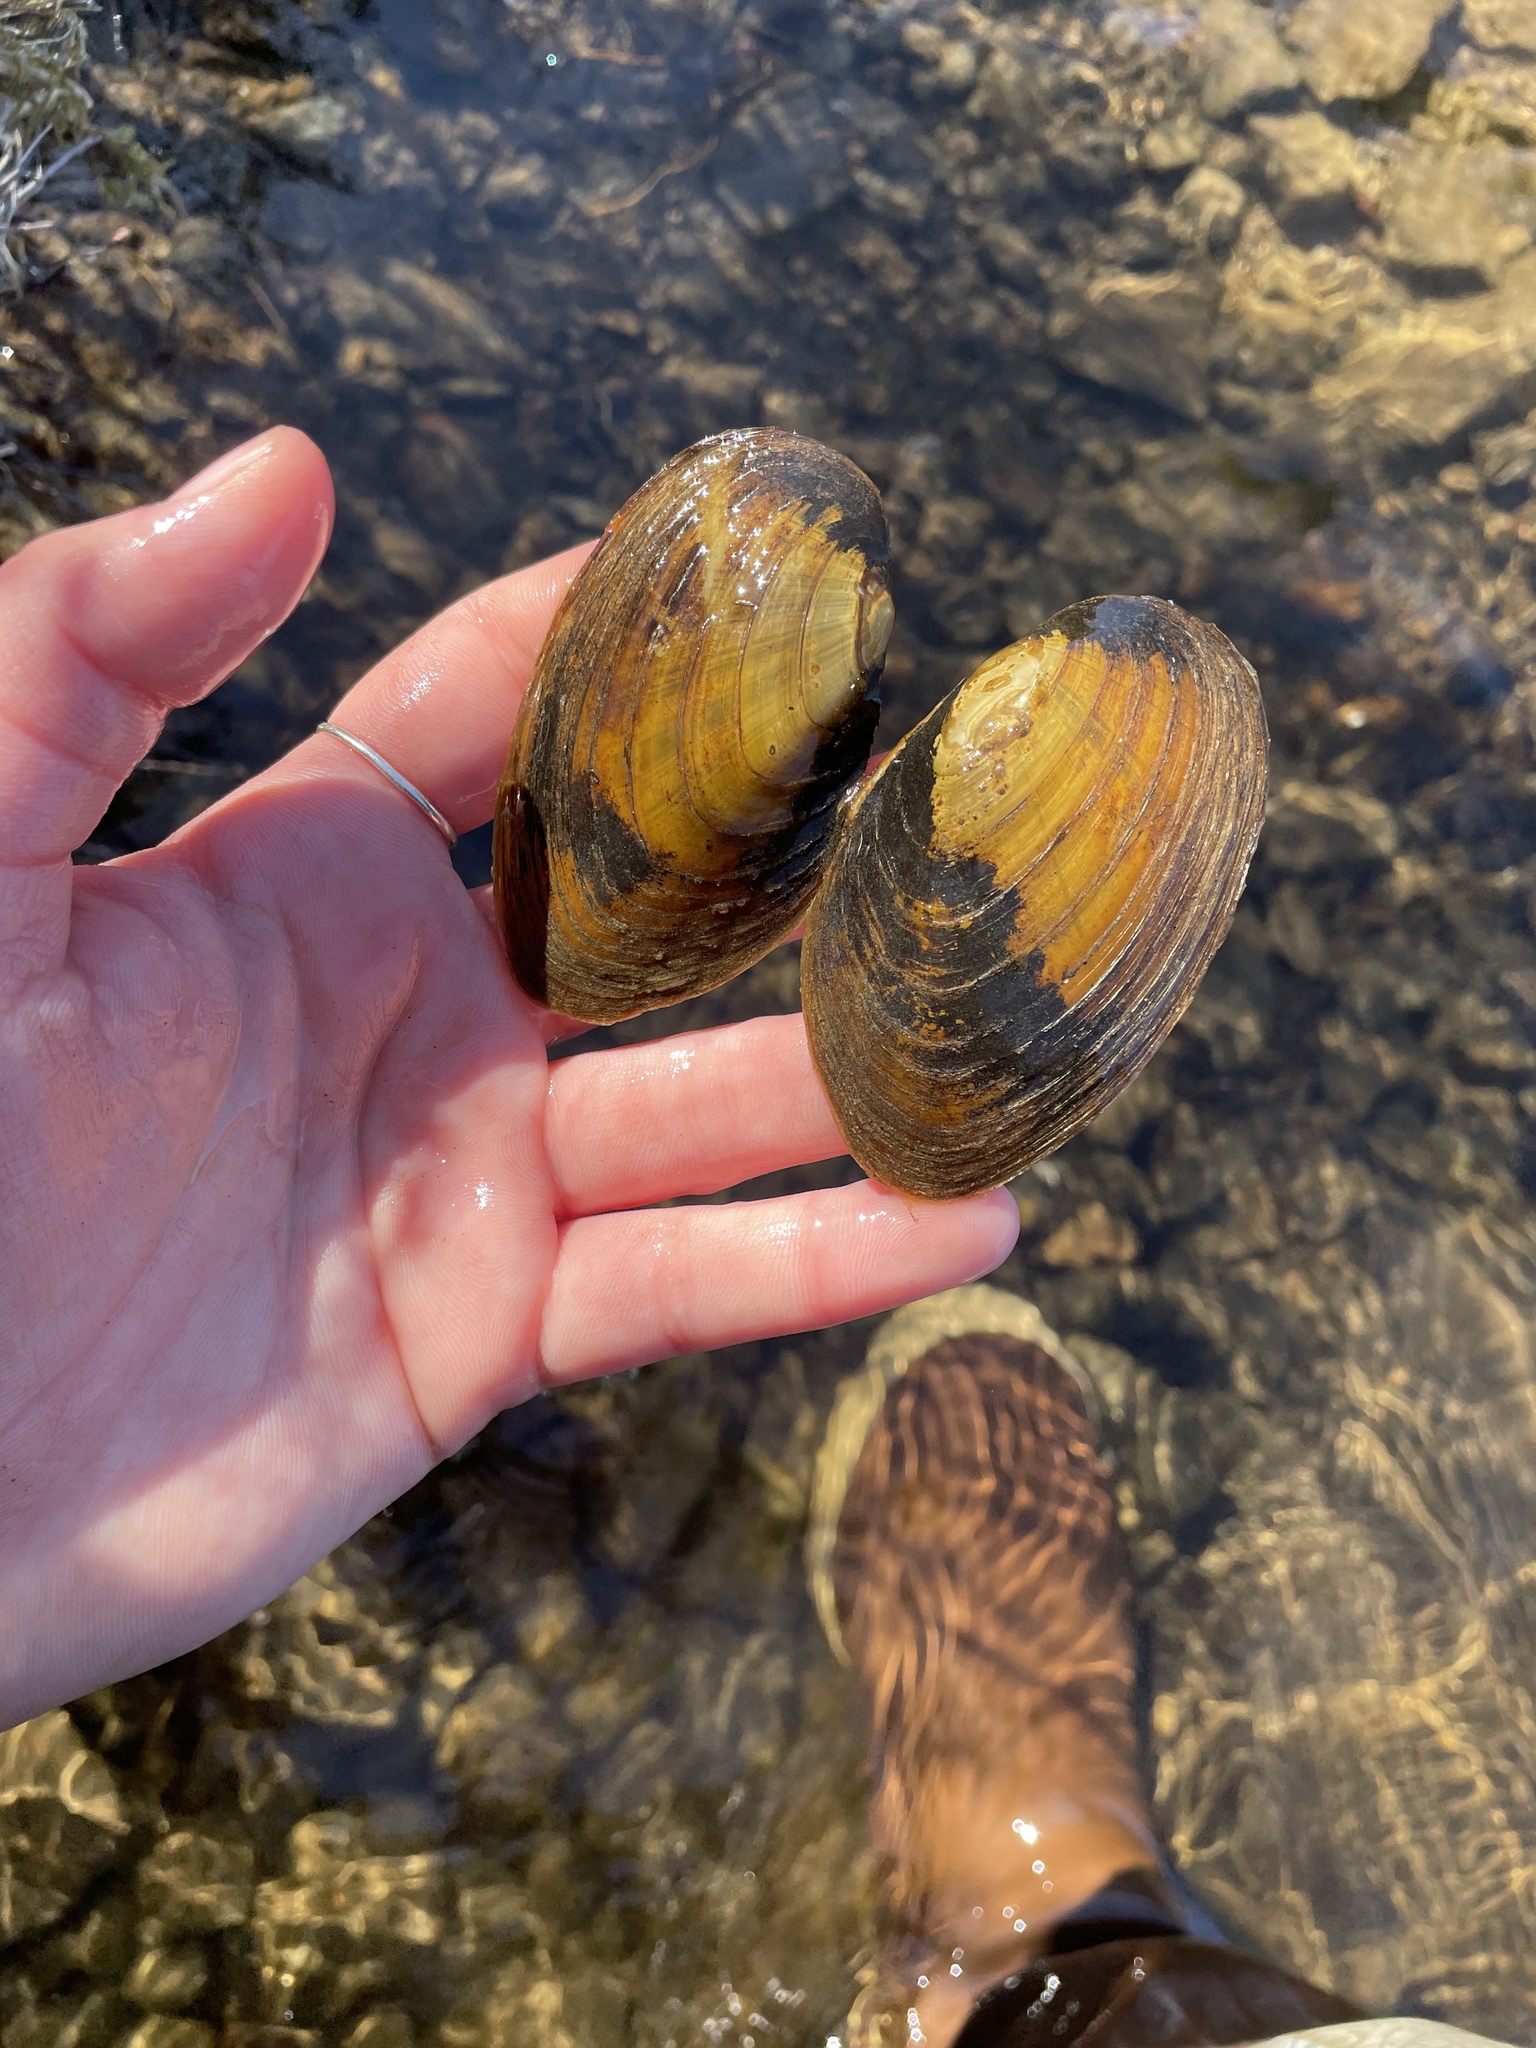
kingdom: Animalia
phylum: Mollusca
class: Bivalvia
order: Unionida
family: Unionidae
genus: Elliptio
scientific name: Elliptio complanata
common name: Eastern elliptio
